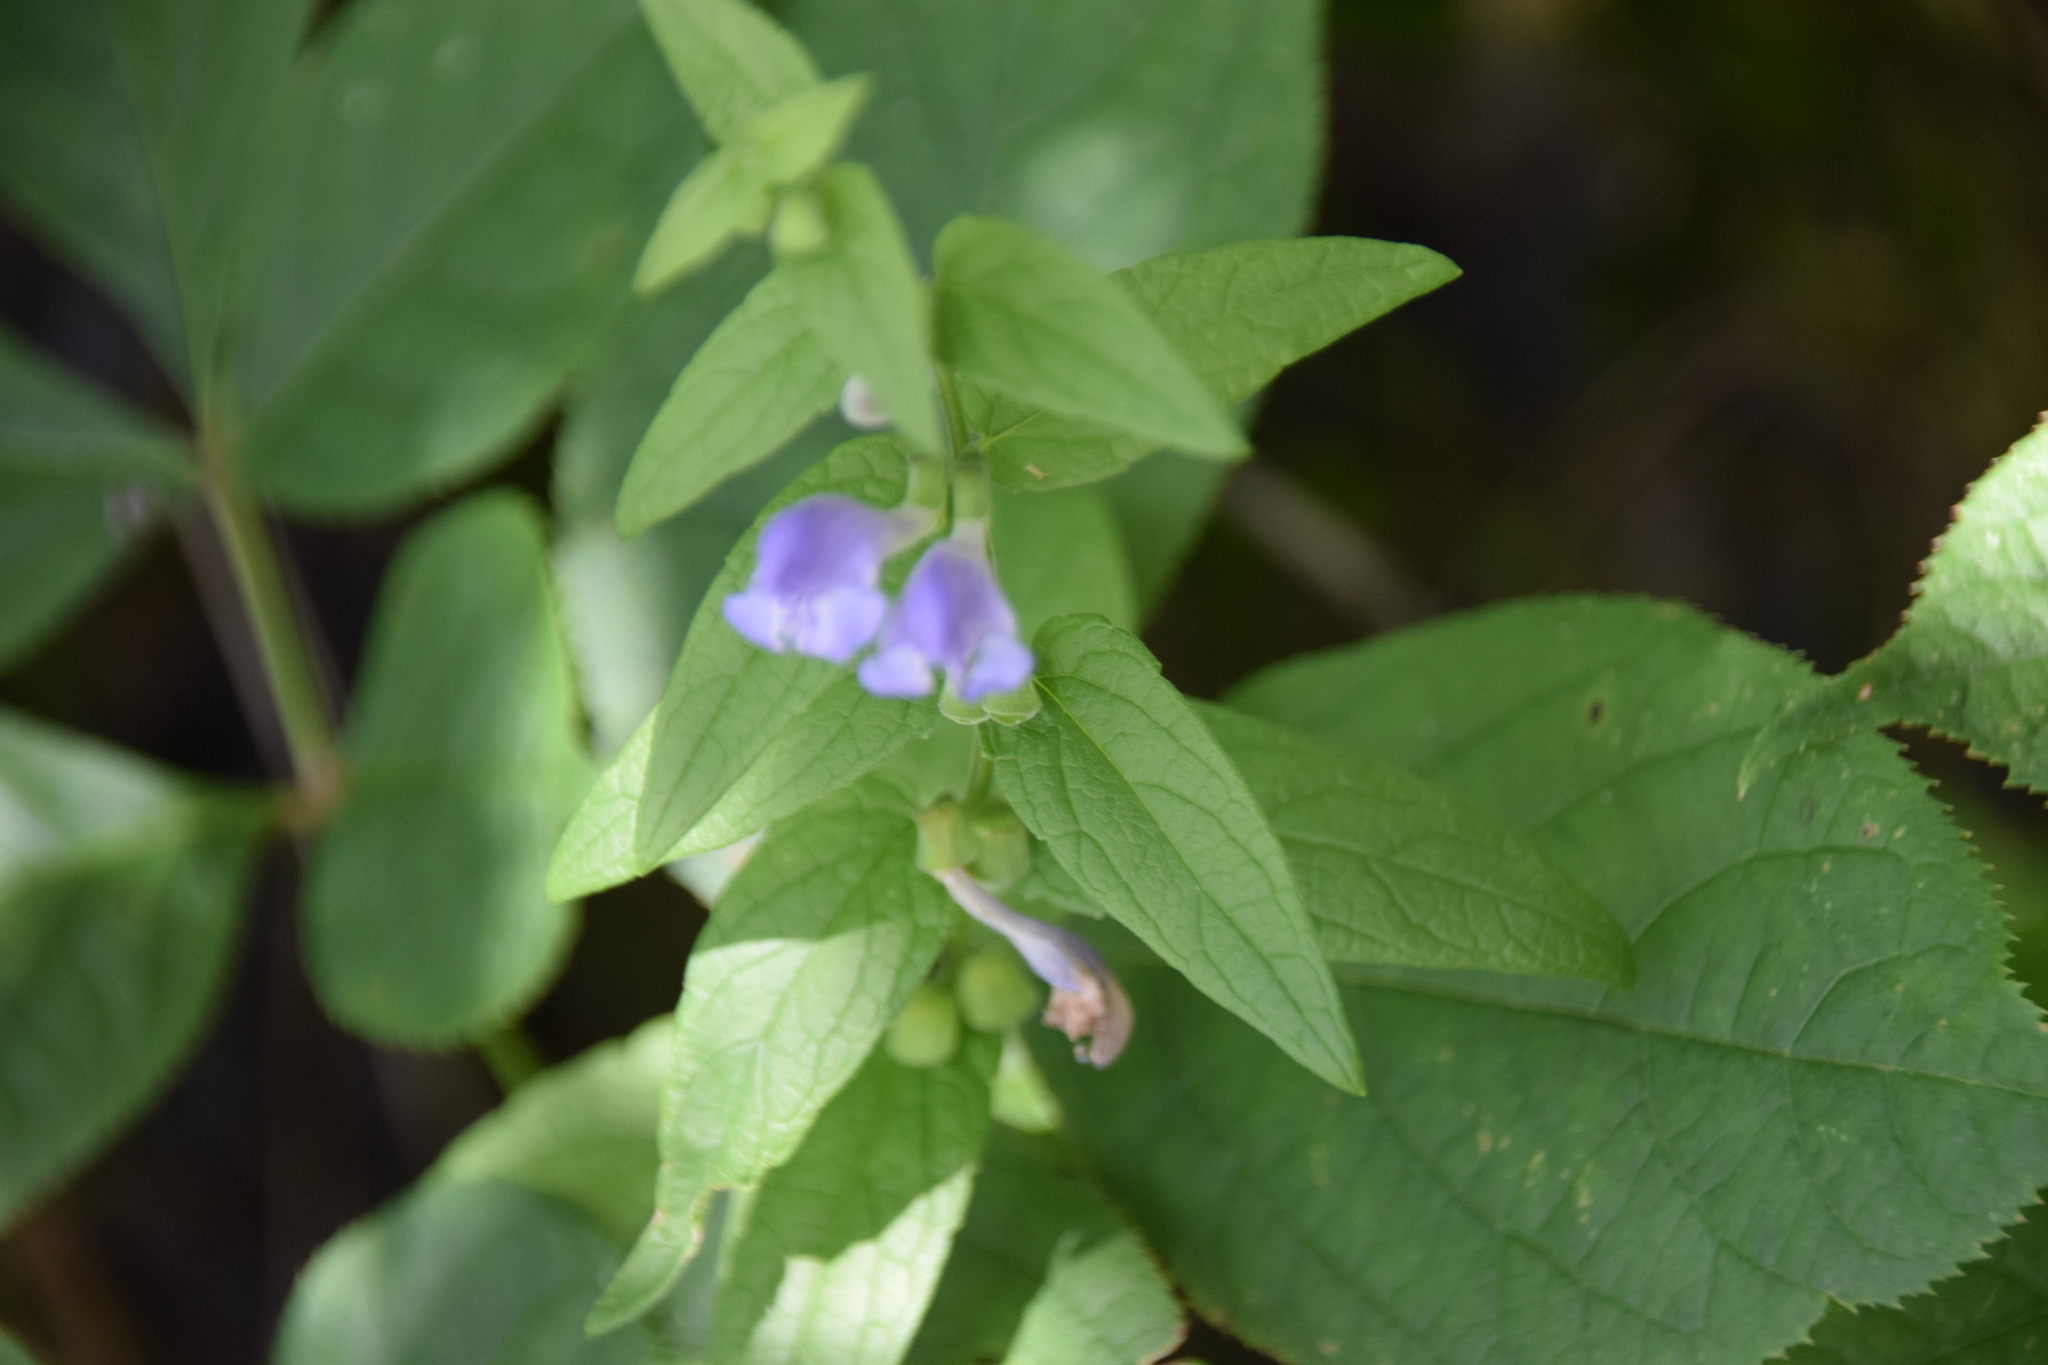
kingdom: Plantae
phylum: Tracheophyta
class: Magnoliopsida
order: Lamiales
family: Lamiaceae
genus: Scutellaria
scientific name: Scutellaria galericulata
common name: Skullcap
